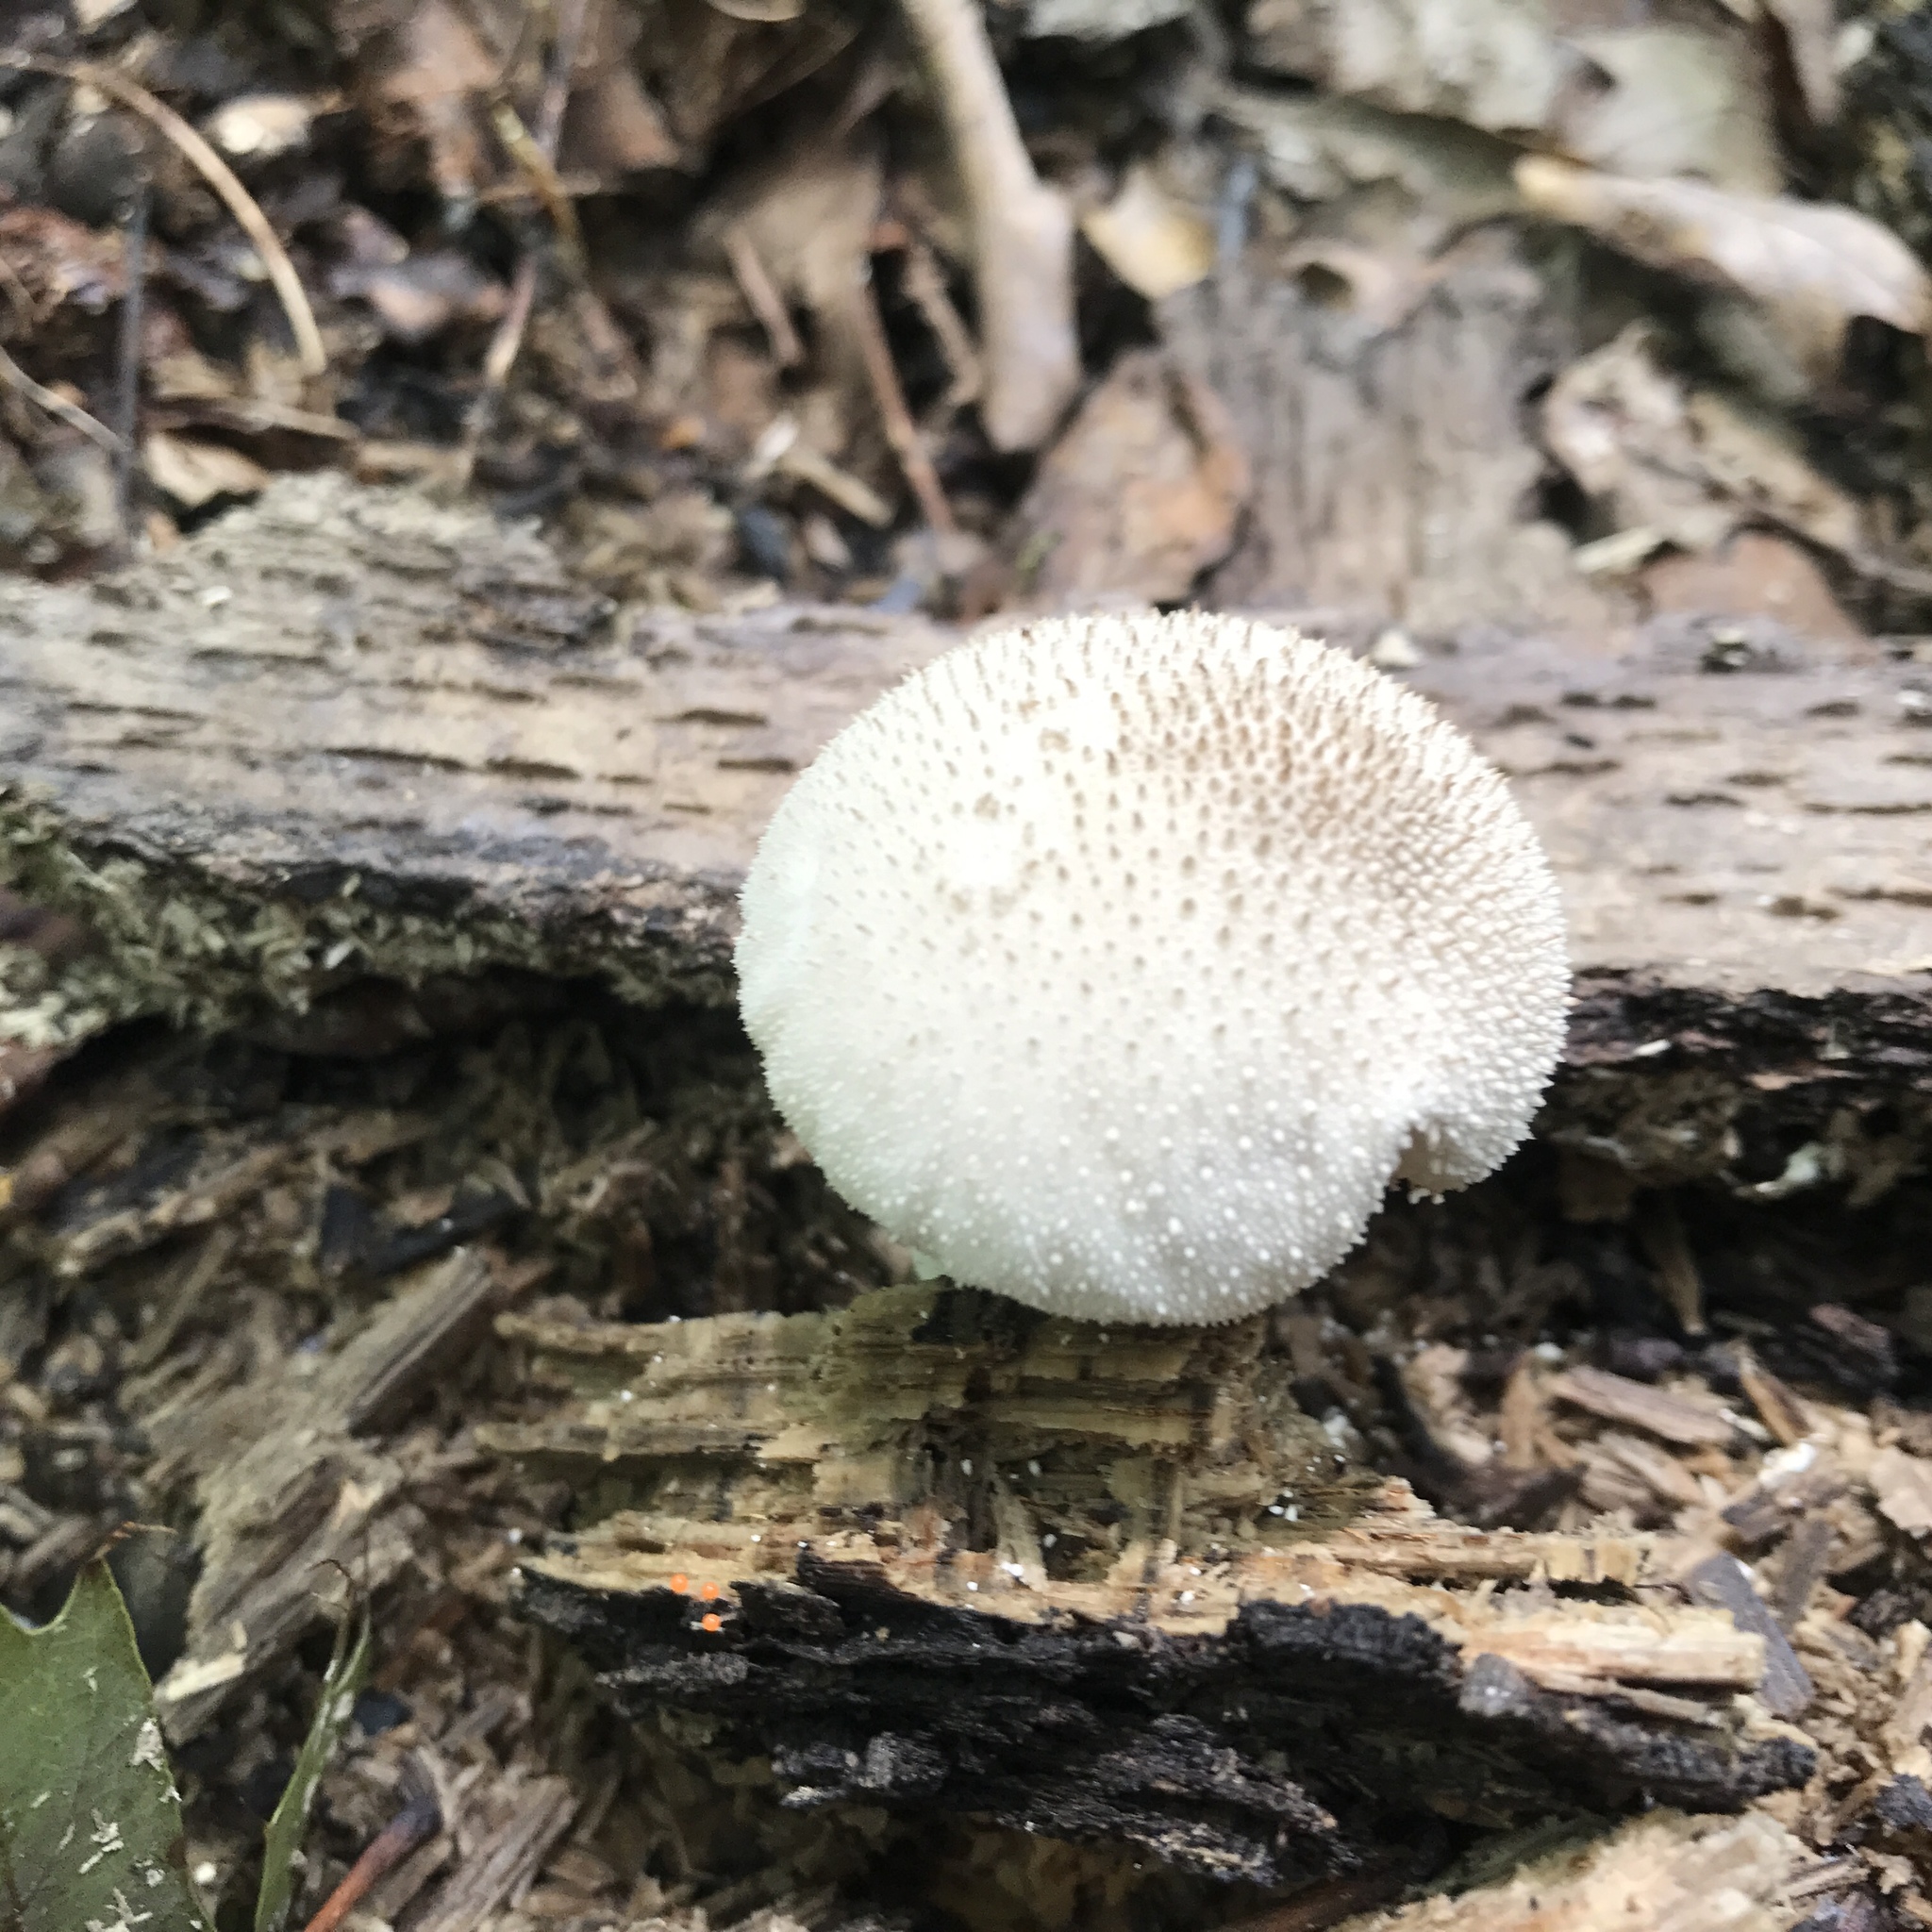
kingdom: Fungi
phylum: Basidiomycota
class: Agaricomycetes
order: Agaricales
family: Lycoperdaceae
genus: Lycoperdon
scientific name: Lycoperdon perlatum
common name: Common puffball
